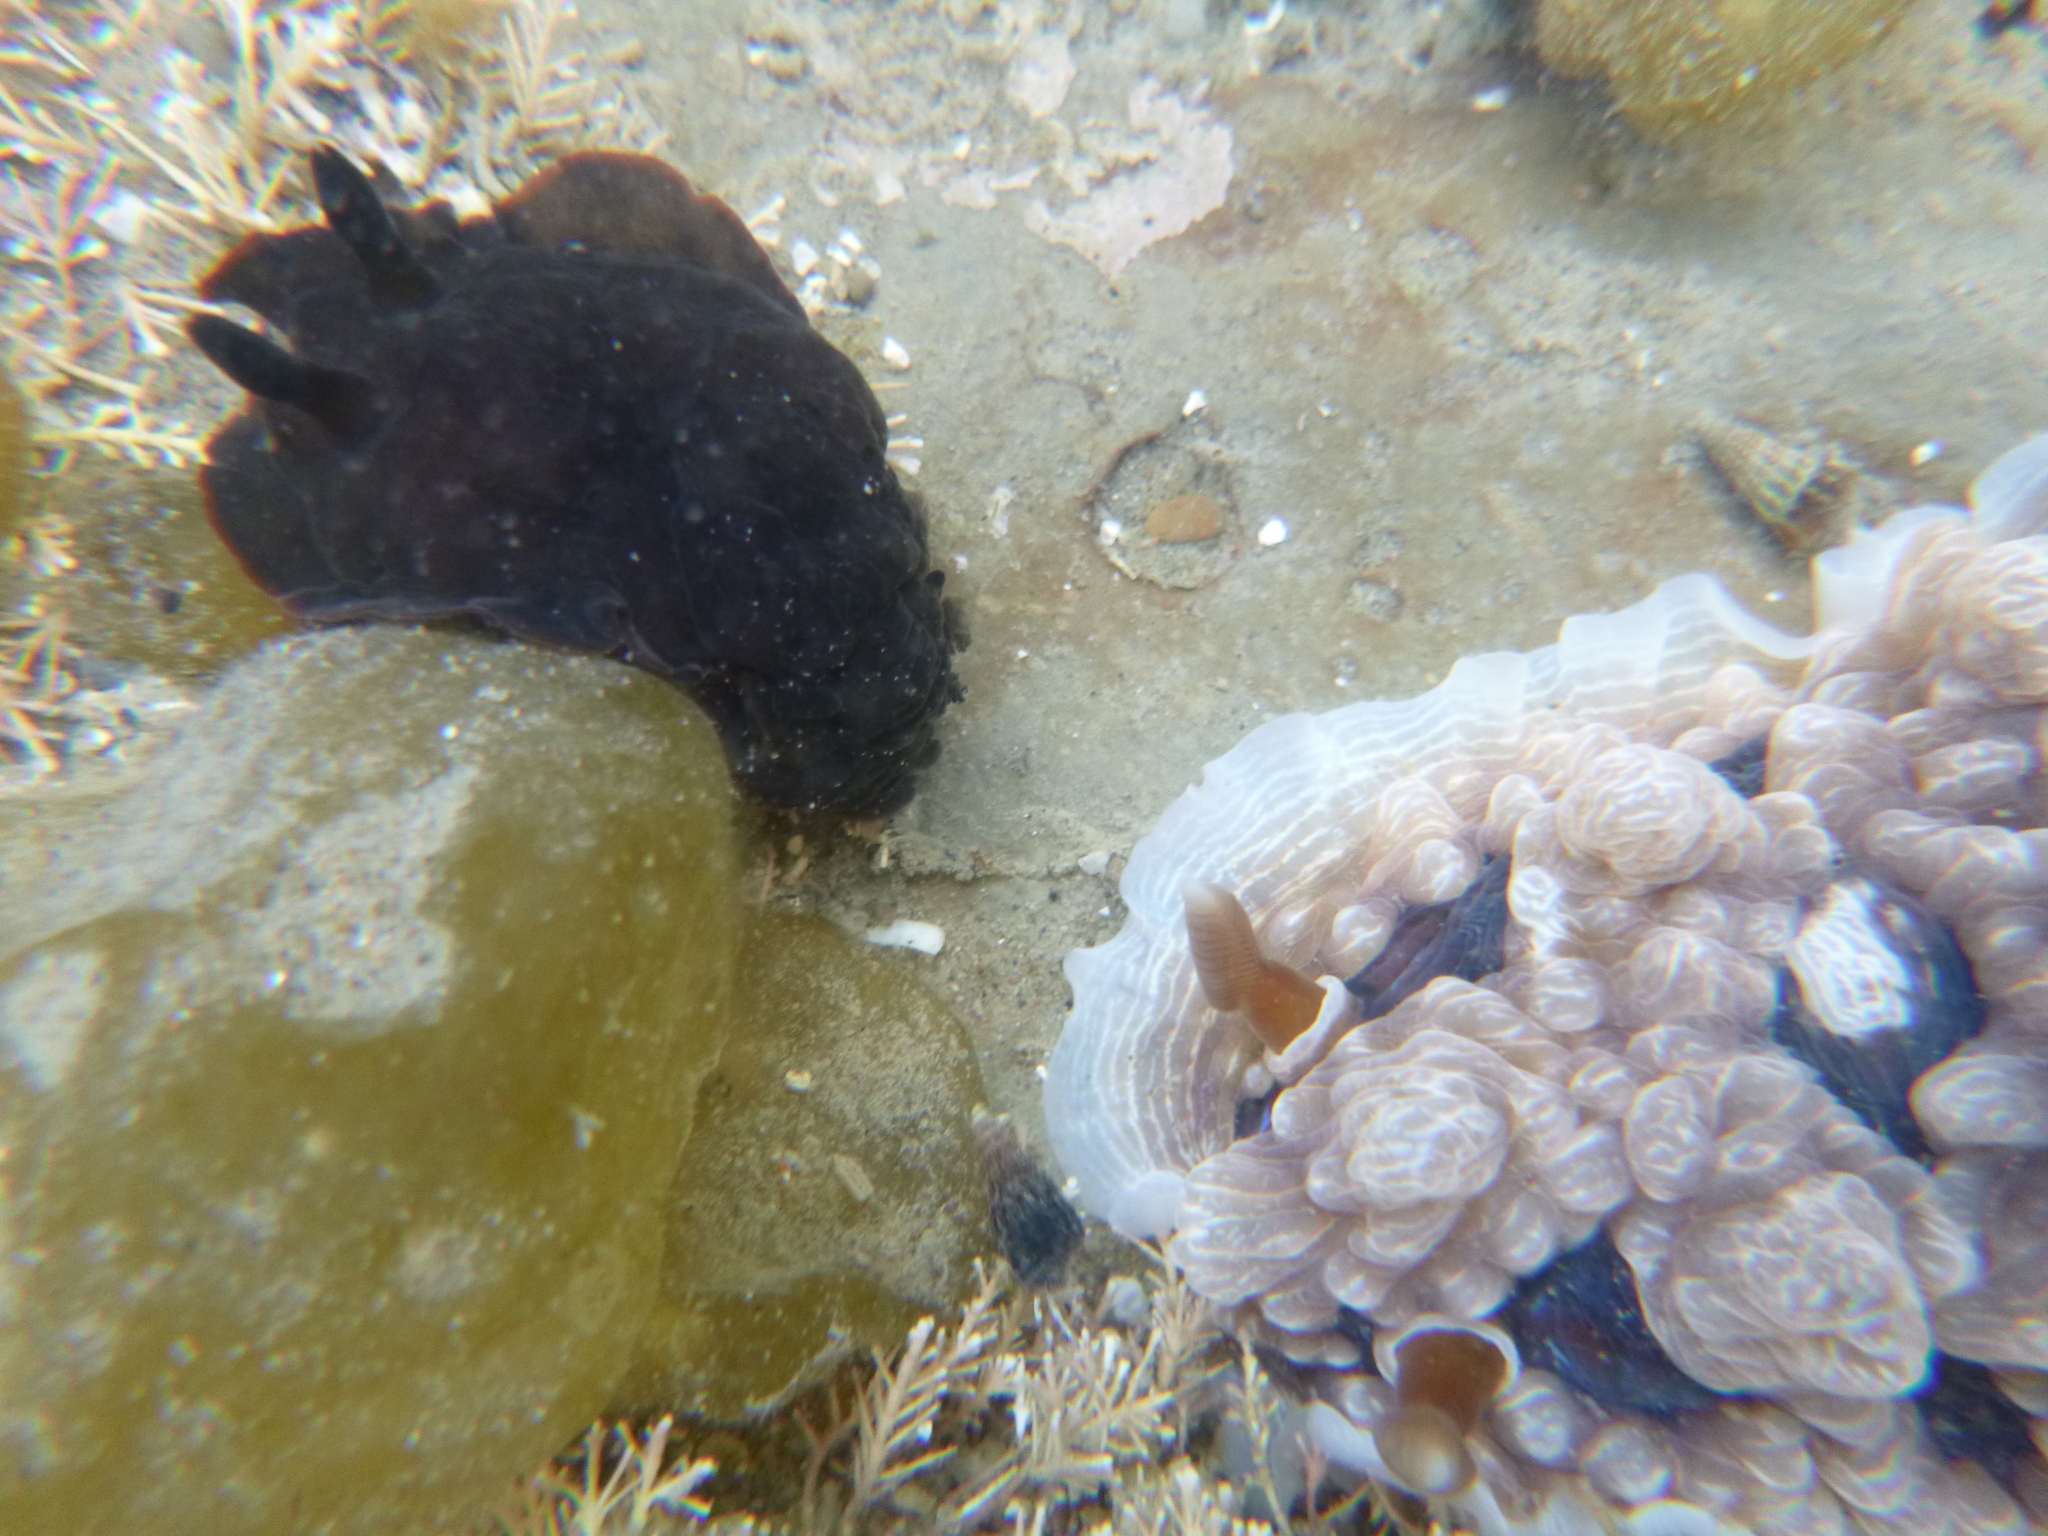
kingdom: Animalia
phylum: Mollusca
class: Gastropoda
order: Nudibranchia
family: Dendrodorididae
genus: Dendrodoris
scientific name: Dendrodoris nigra
